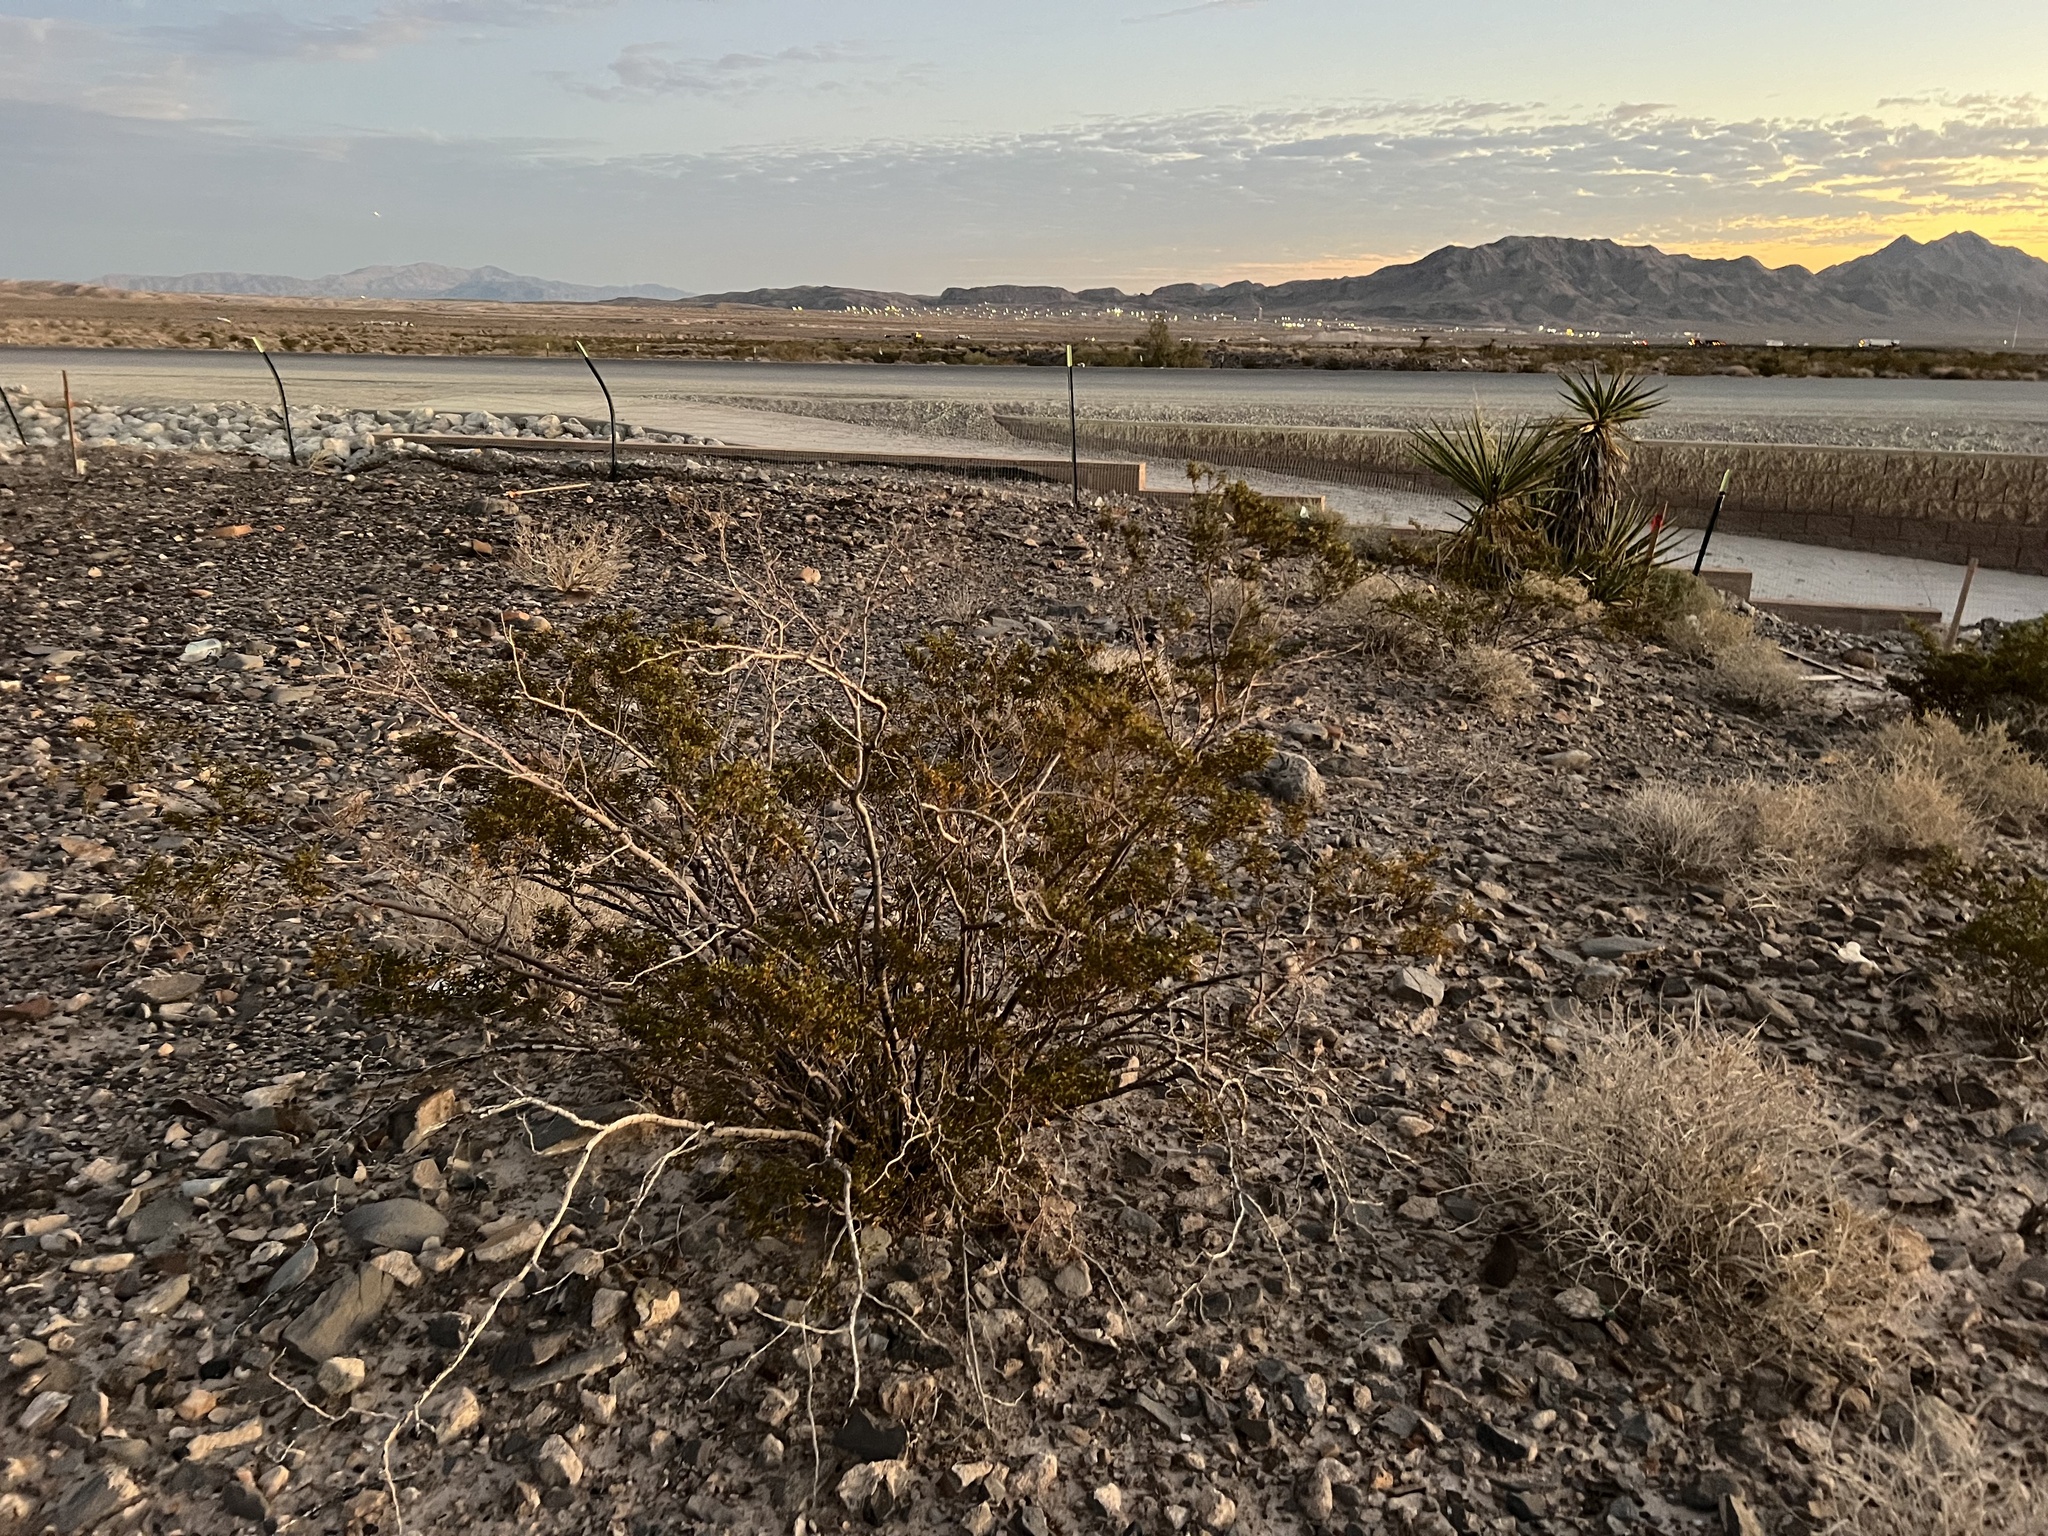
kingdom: Plantae
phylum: Tracheophyta
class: Magnoliopsida
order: Zygophyllales
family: Zygophyllaceae
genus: Larrea
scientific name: Larrea tridentata
